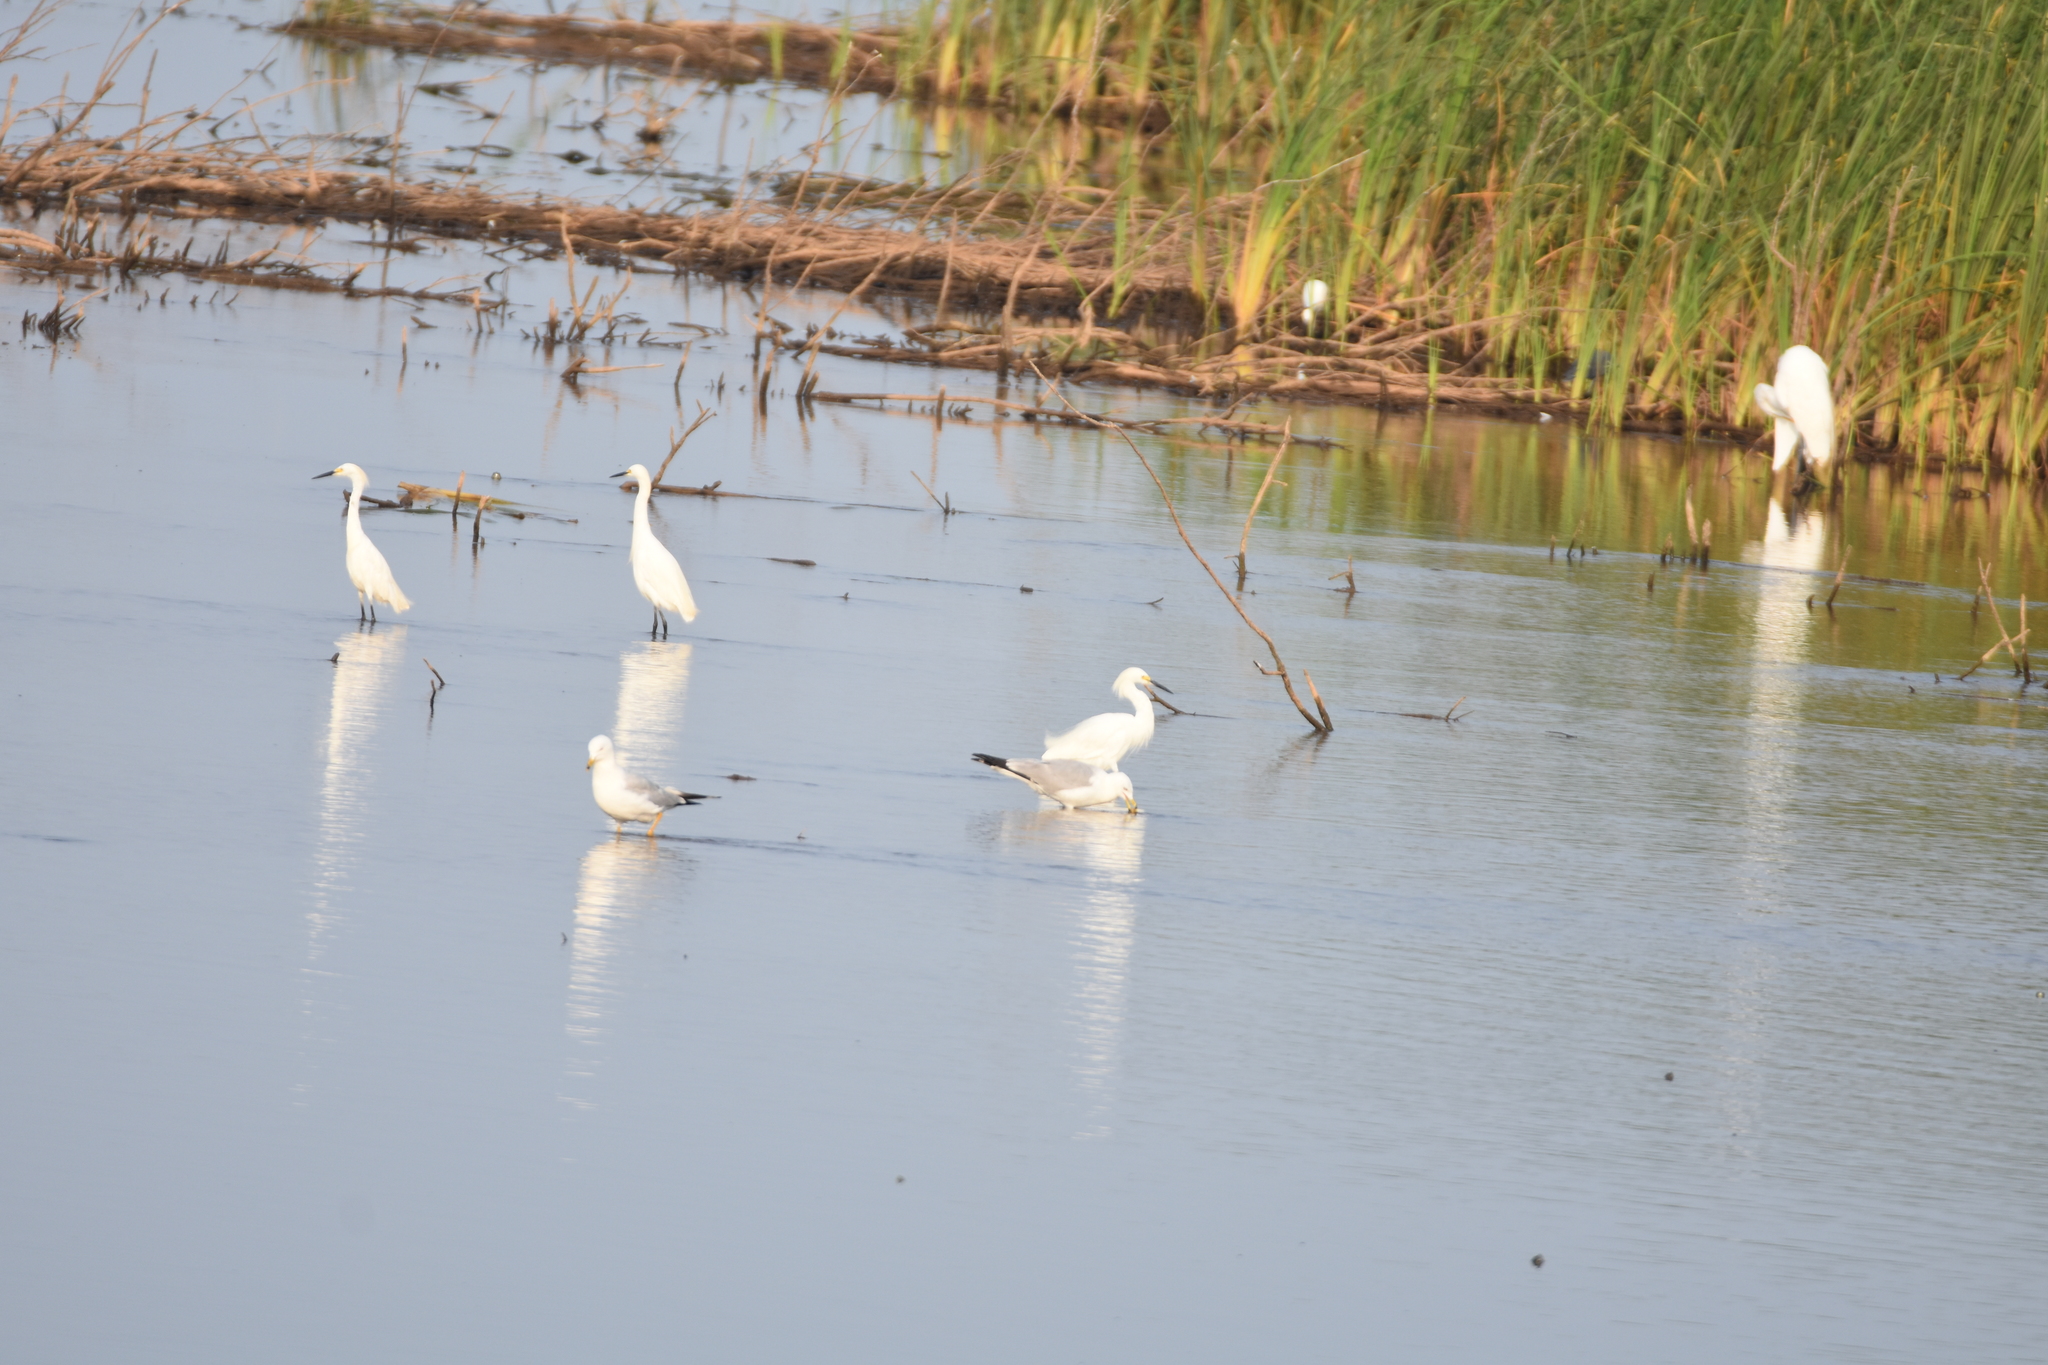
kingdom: Animalia
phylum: Chordata
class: Aves
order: Pelecaniformes
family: Ardeidae
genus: Egretta
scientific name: Egretta thula
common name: Snowy egret
